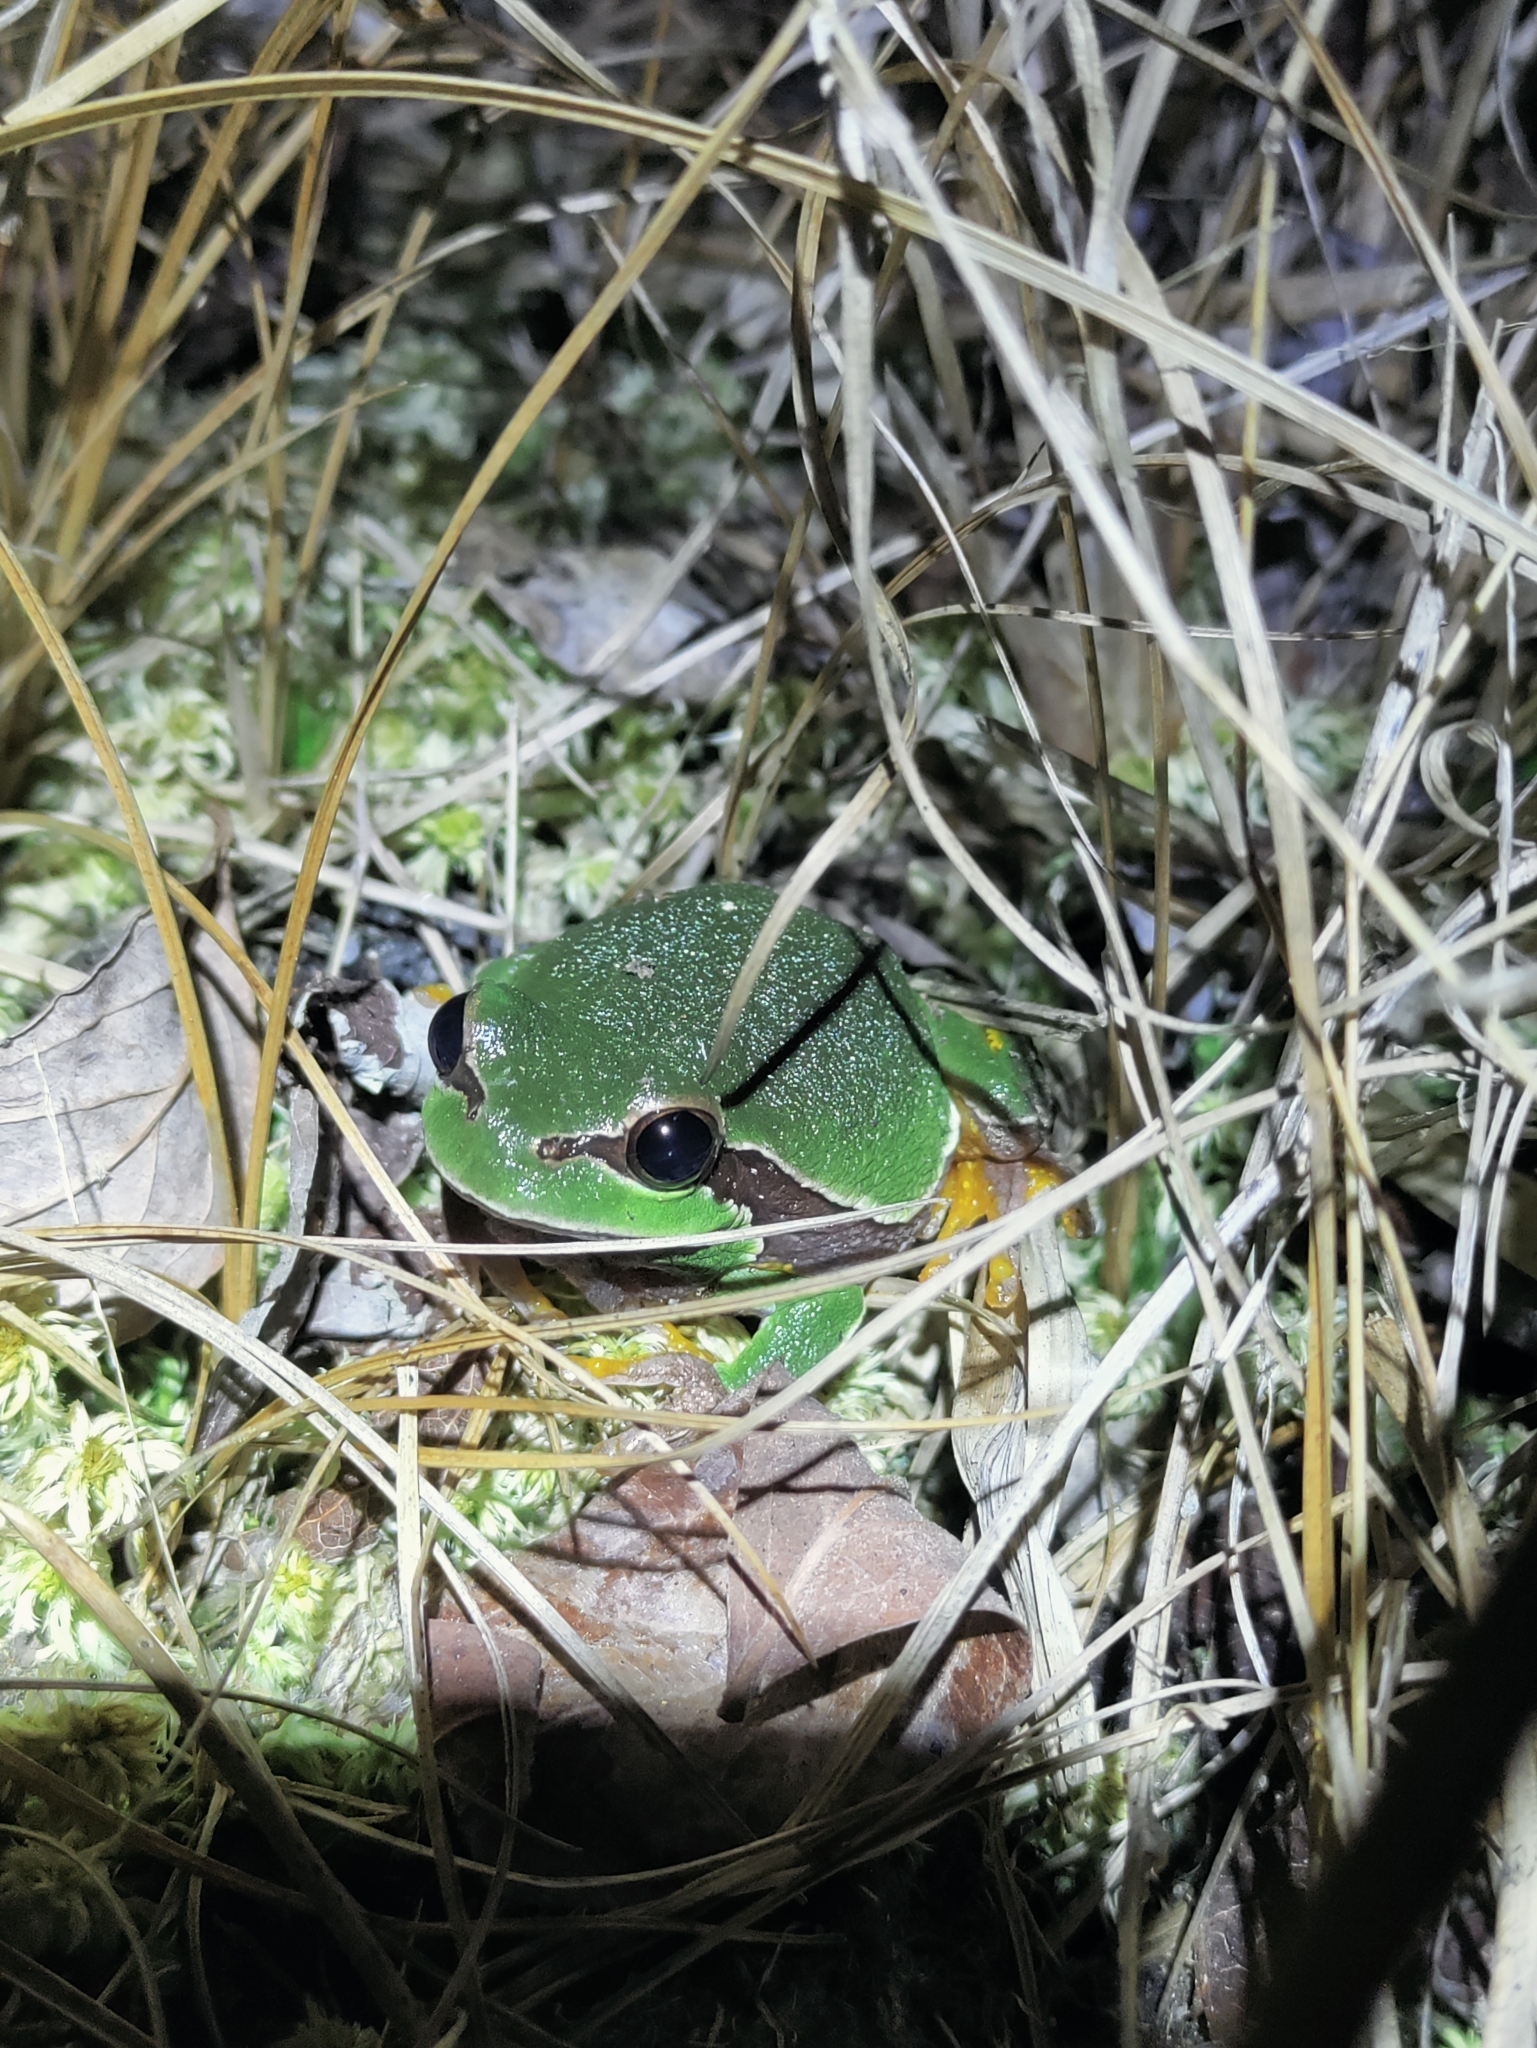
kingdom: Animalia
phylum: Chordata
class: Amphibia
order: Anura
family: Hylidae
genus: Dryophytes
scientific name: Dryophytes andersonii
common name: Pine barrens treefrog
